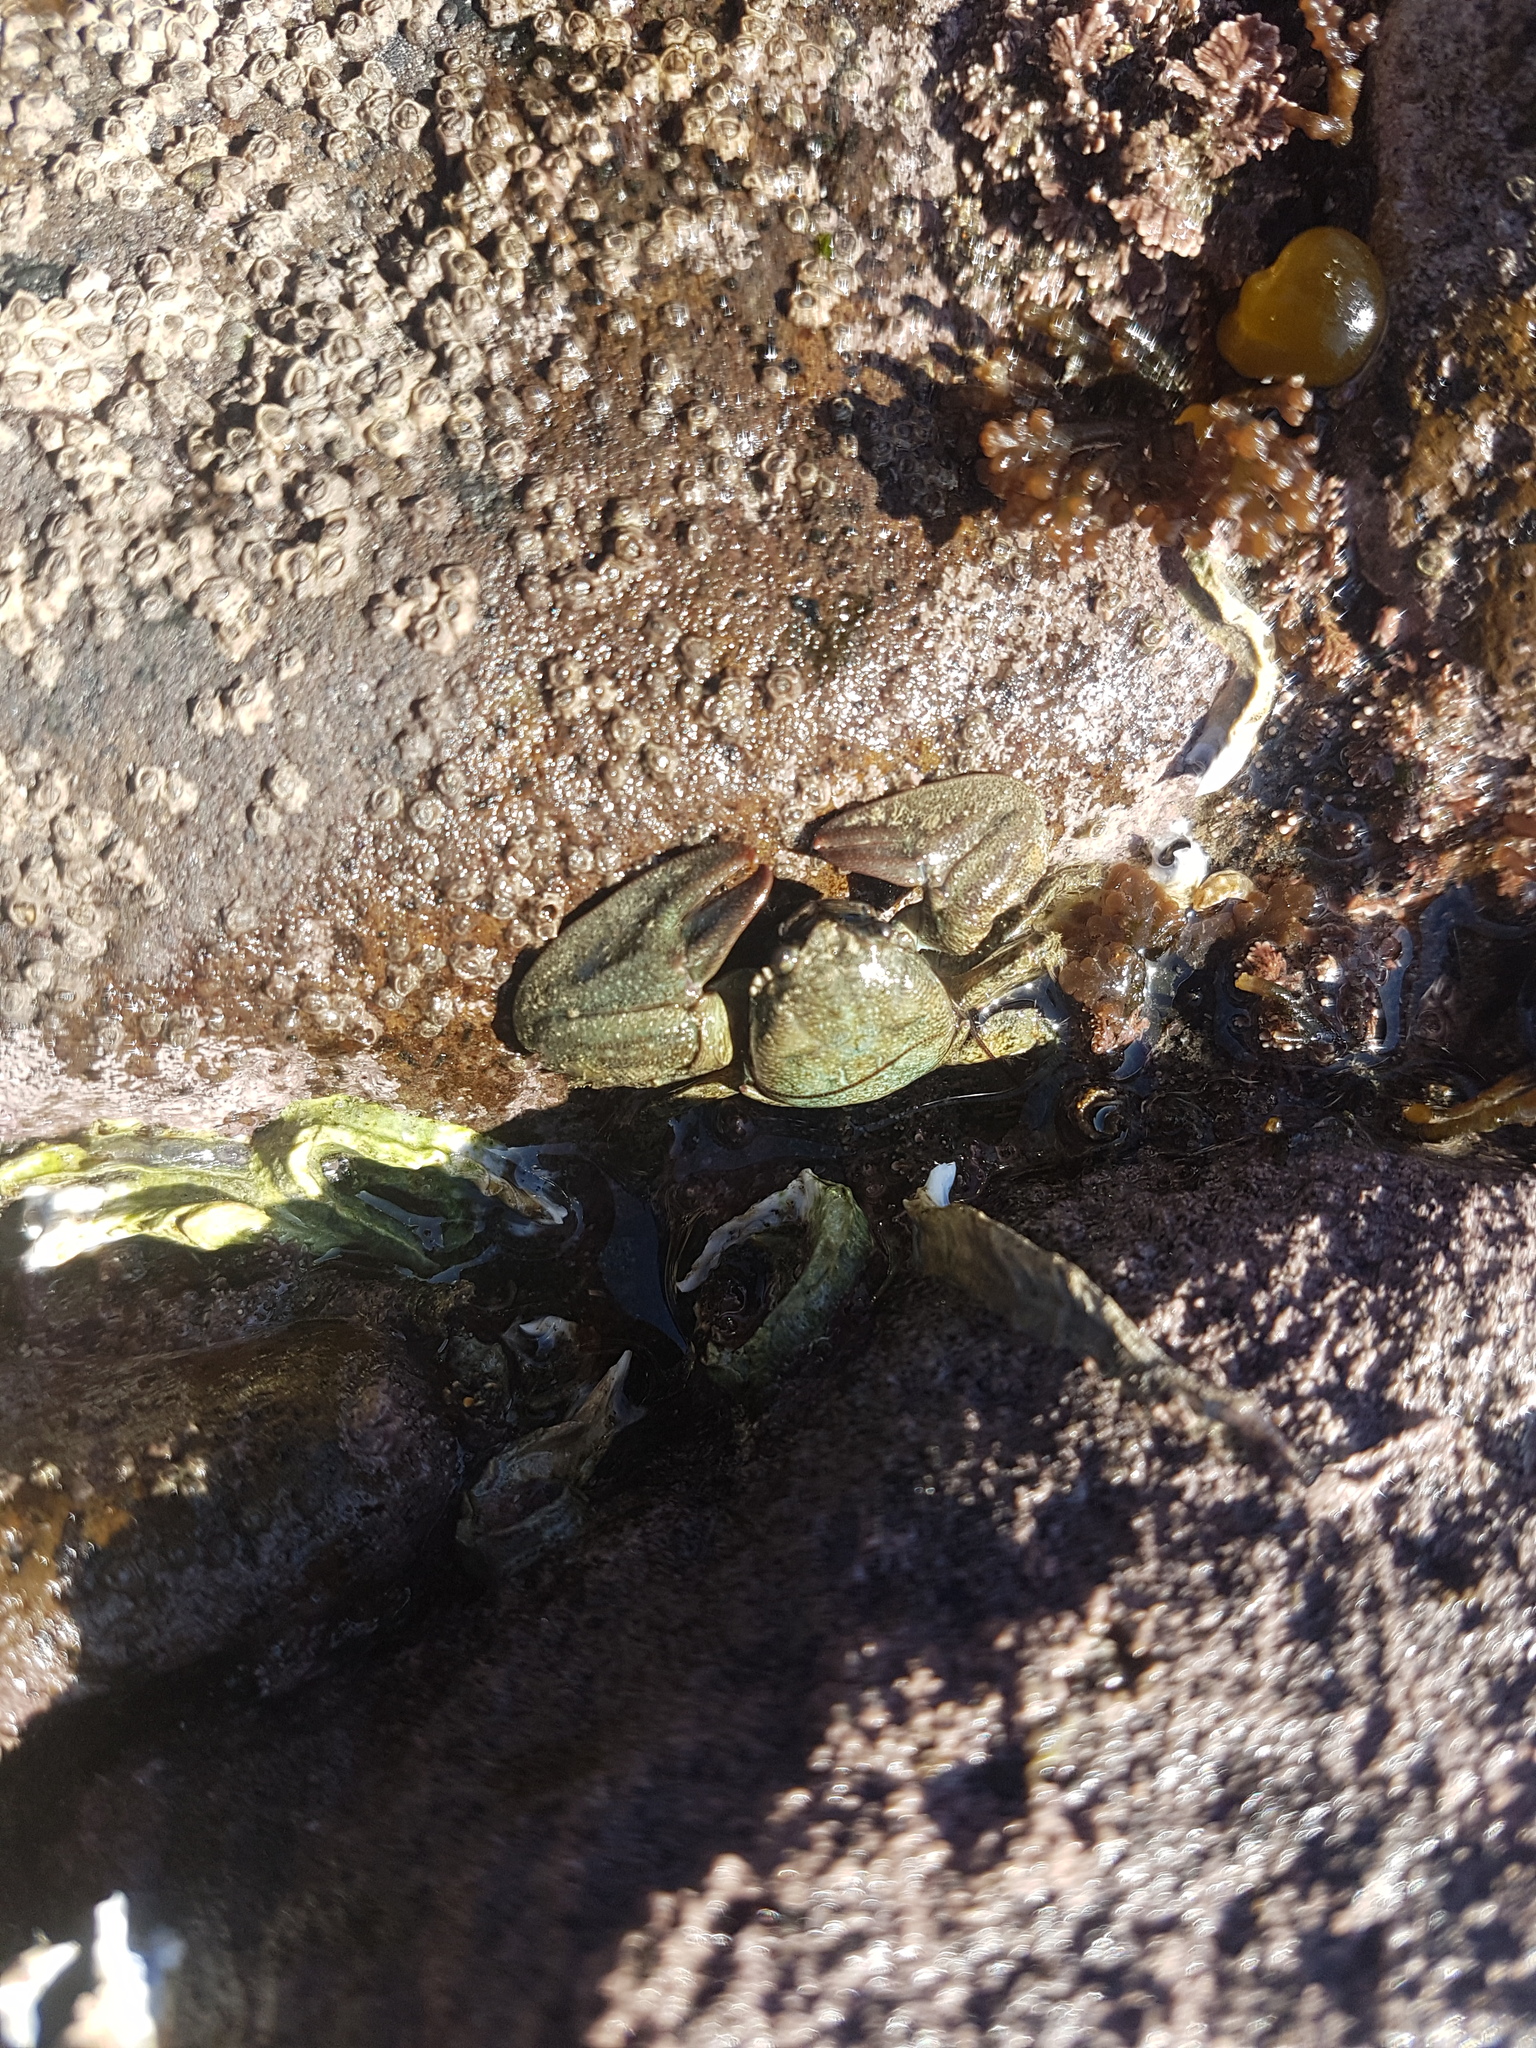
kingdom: Animalia
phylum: Arthropoda
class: Malacostraca
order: Decapoda
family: Porcellanidae
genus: Petrolisthes
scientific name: Petrolisthes elongatus
